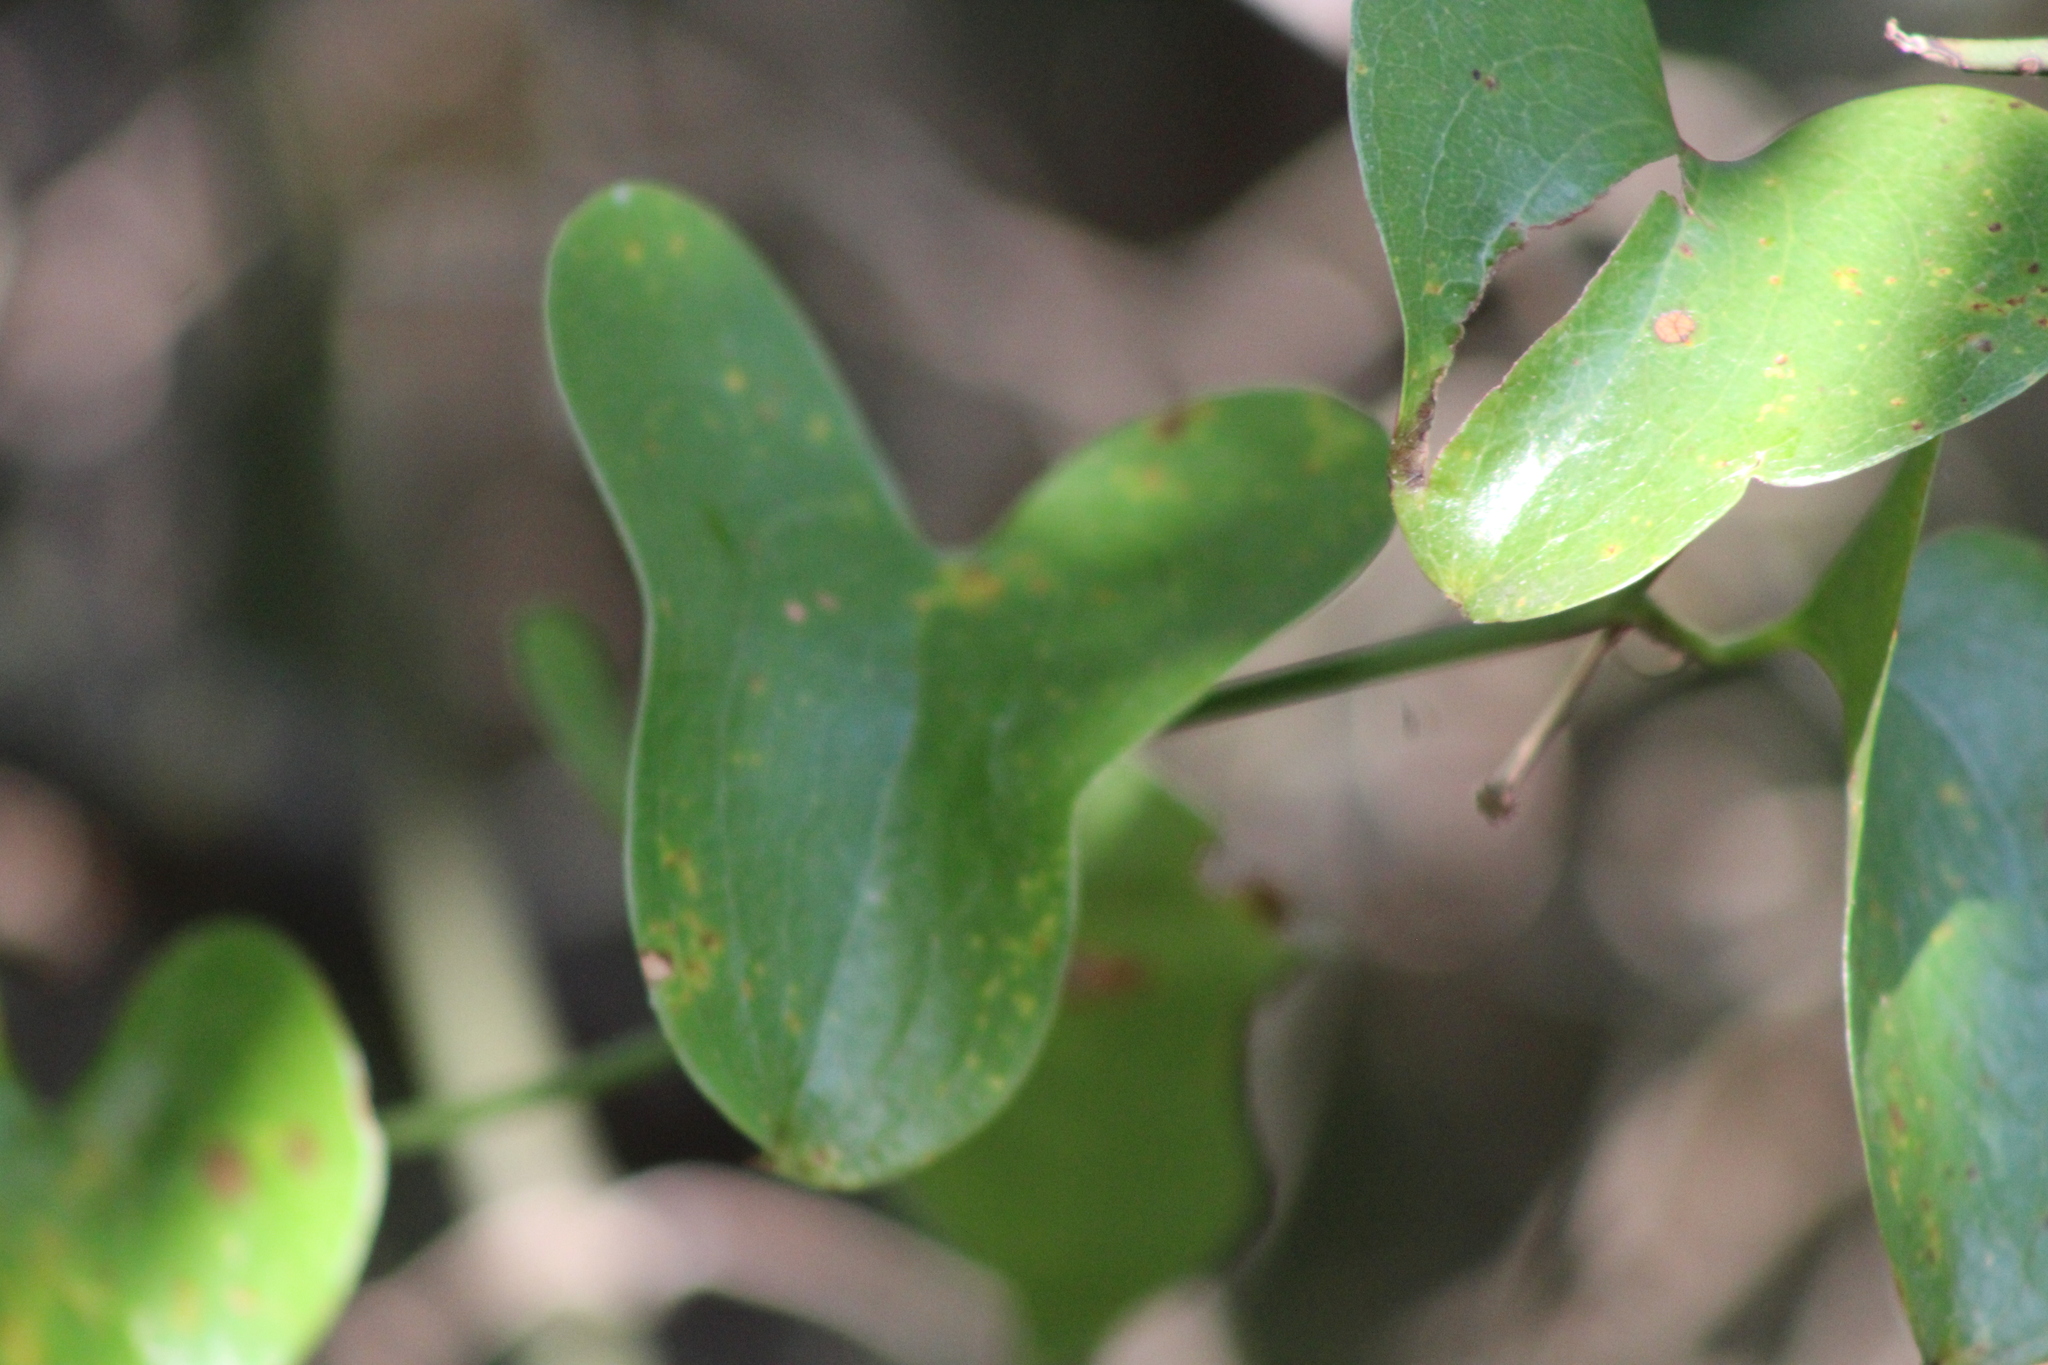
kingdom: Plantae
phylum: Tracheophyta
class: Liliopsida
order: Liliales
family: Smilacaceae
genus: Smilax
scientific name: Smilax bona-nox
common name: Catbrier
